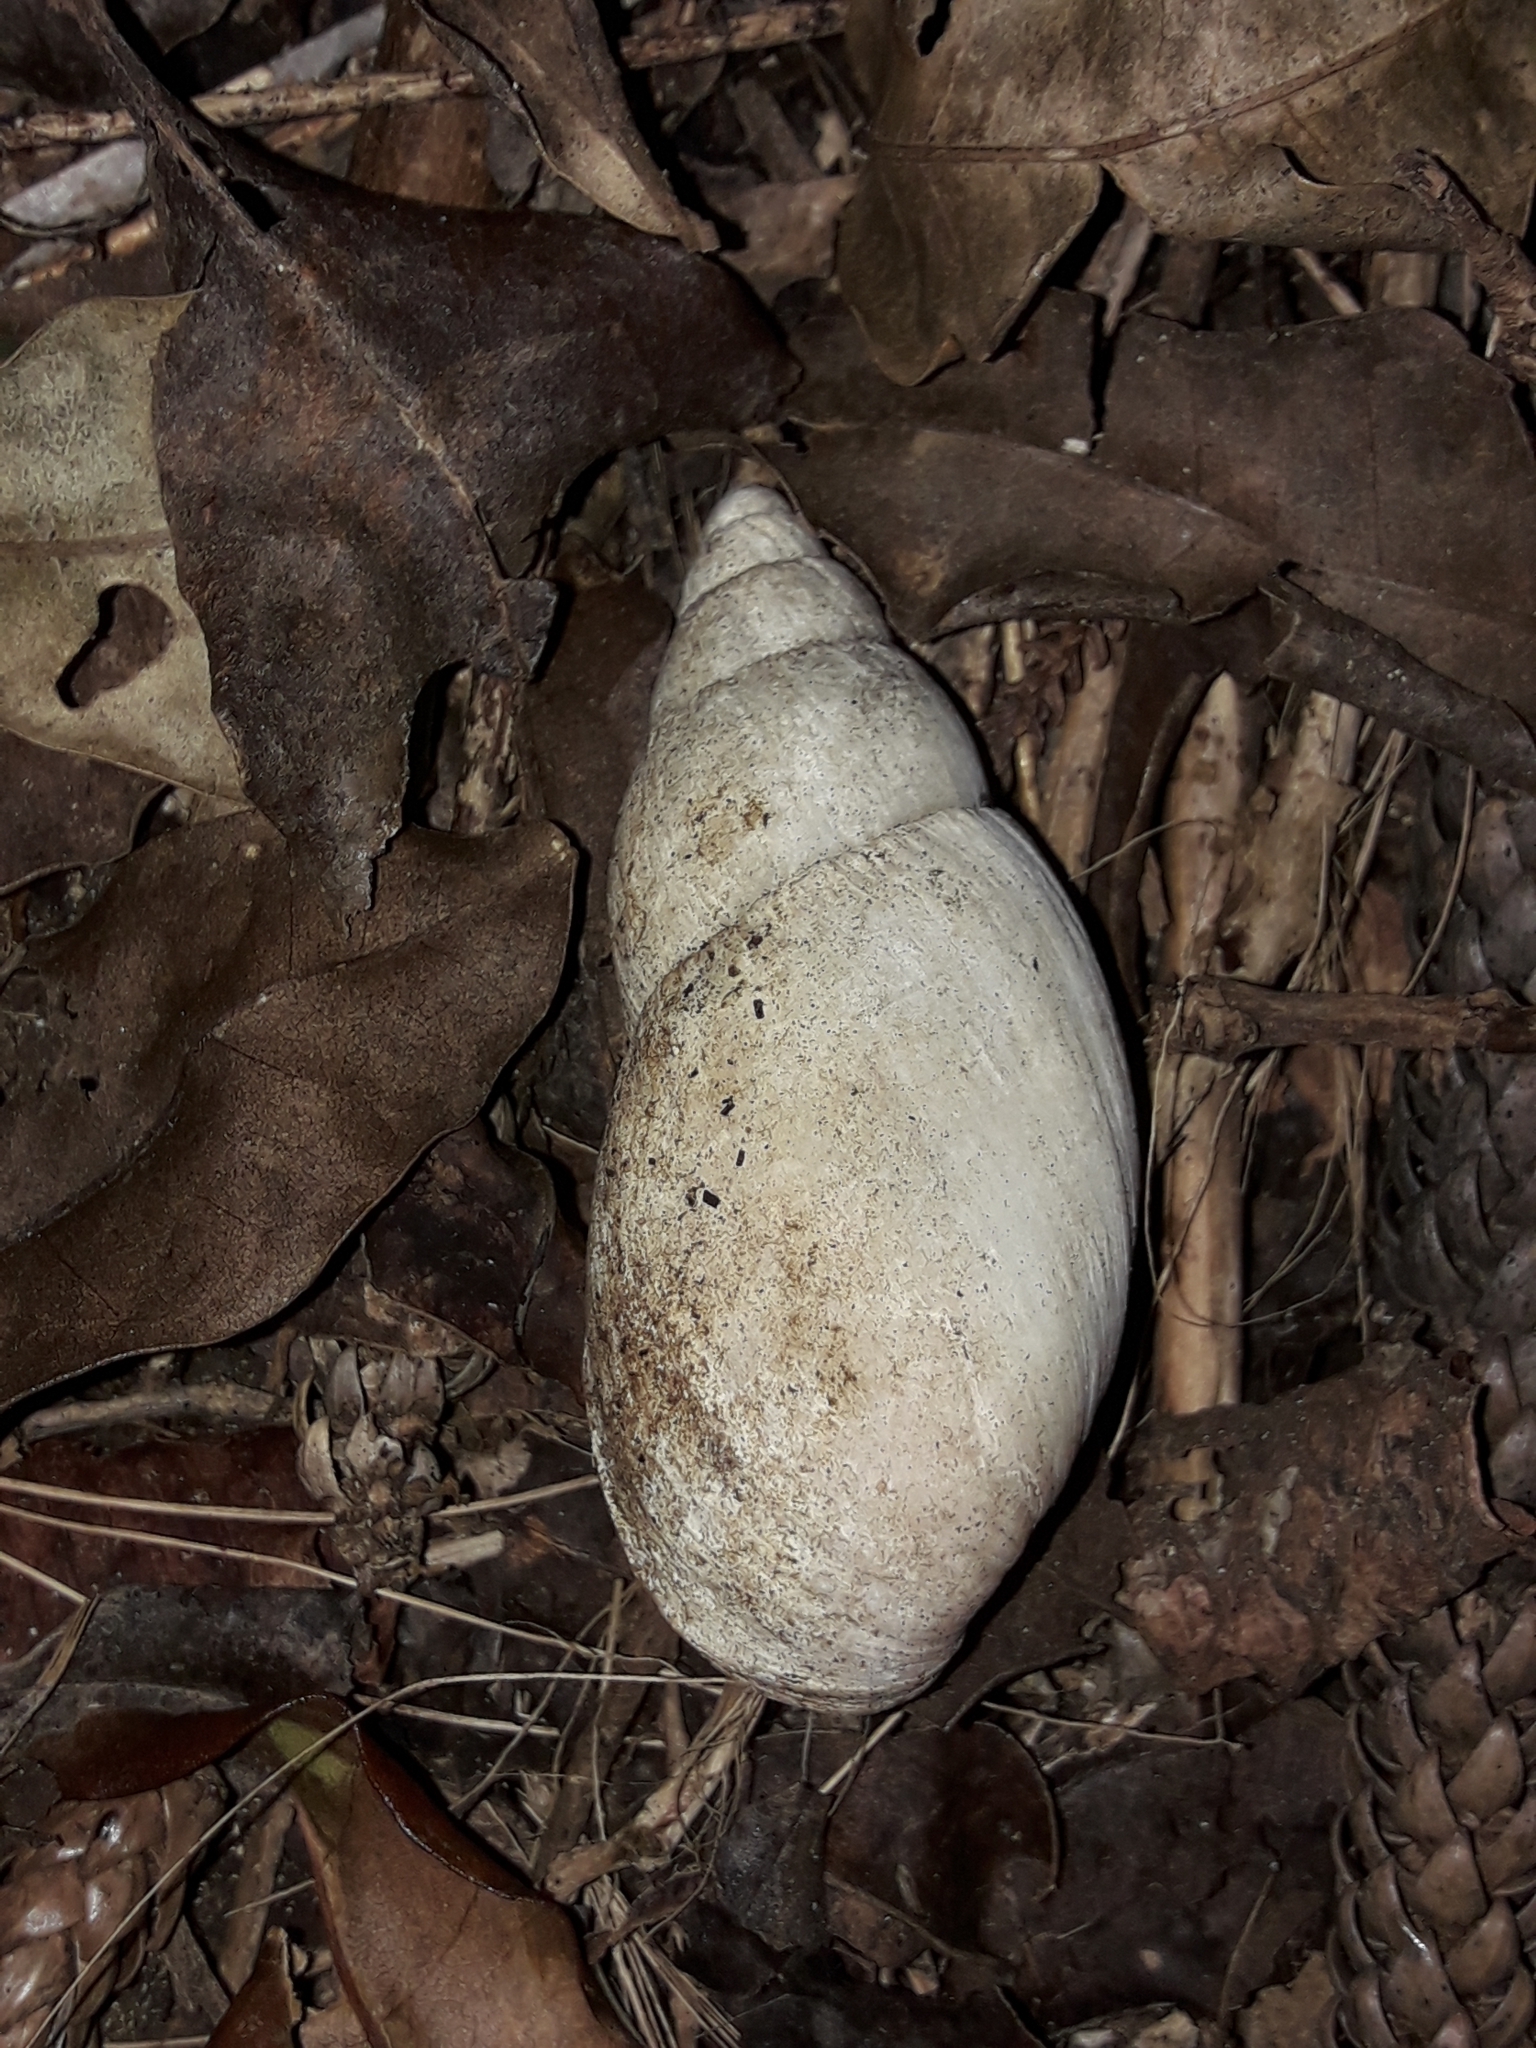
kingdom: Animalia
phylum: Mollusca
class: Gastropoda
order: Stylommatophora
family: Bothriembryontidae
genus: Maoristylus
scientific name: Maoristylus bivaricosus
